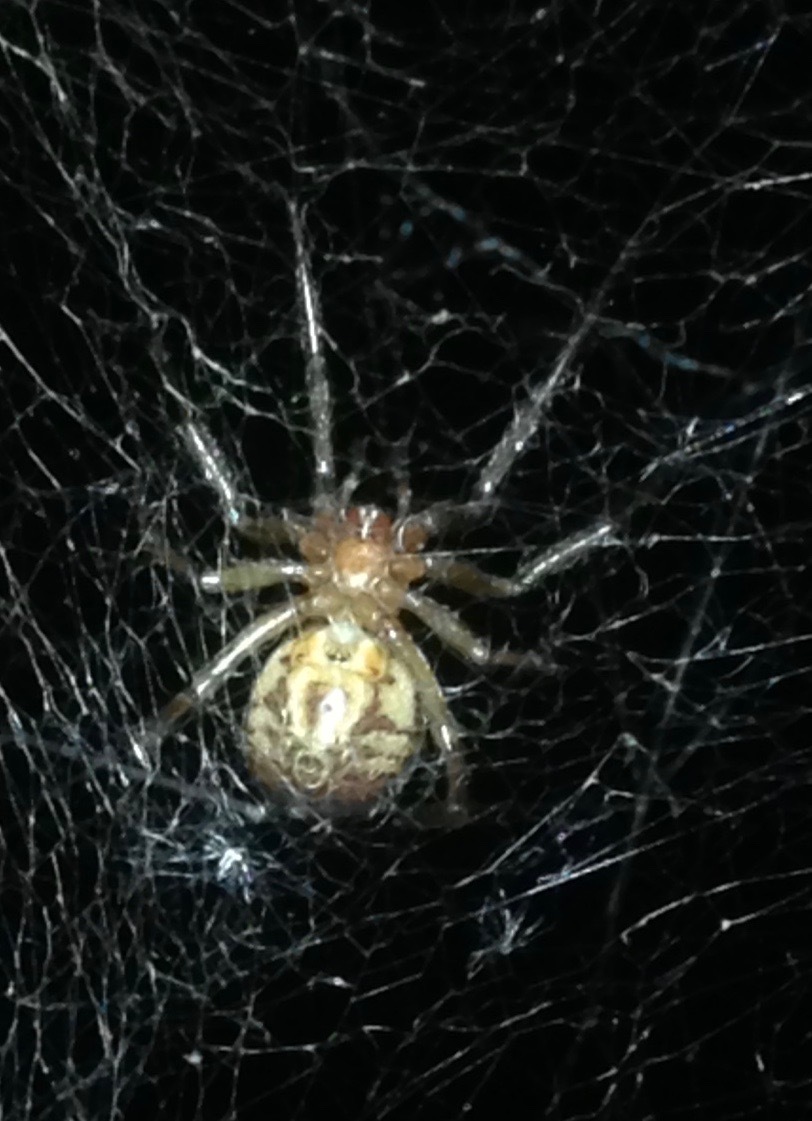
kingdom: Animalia
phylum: Arthropoda
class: Arachnida
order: Araneae
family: Theridiidae
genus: Steatoda
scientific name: Steatoda nobilis
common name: Cobweb weaver
